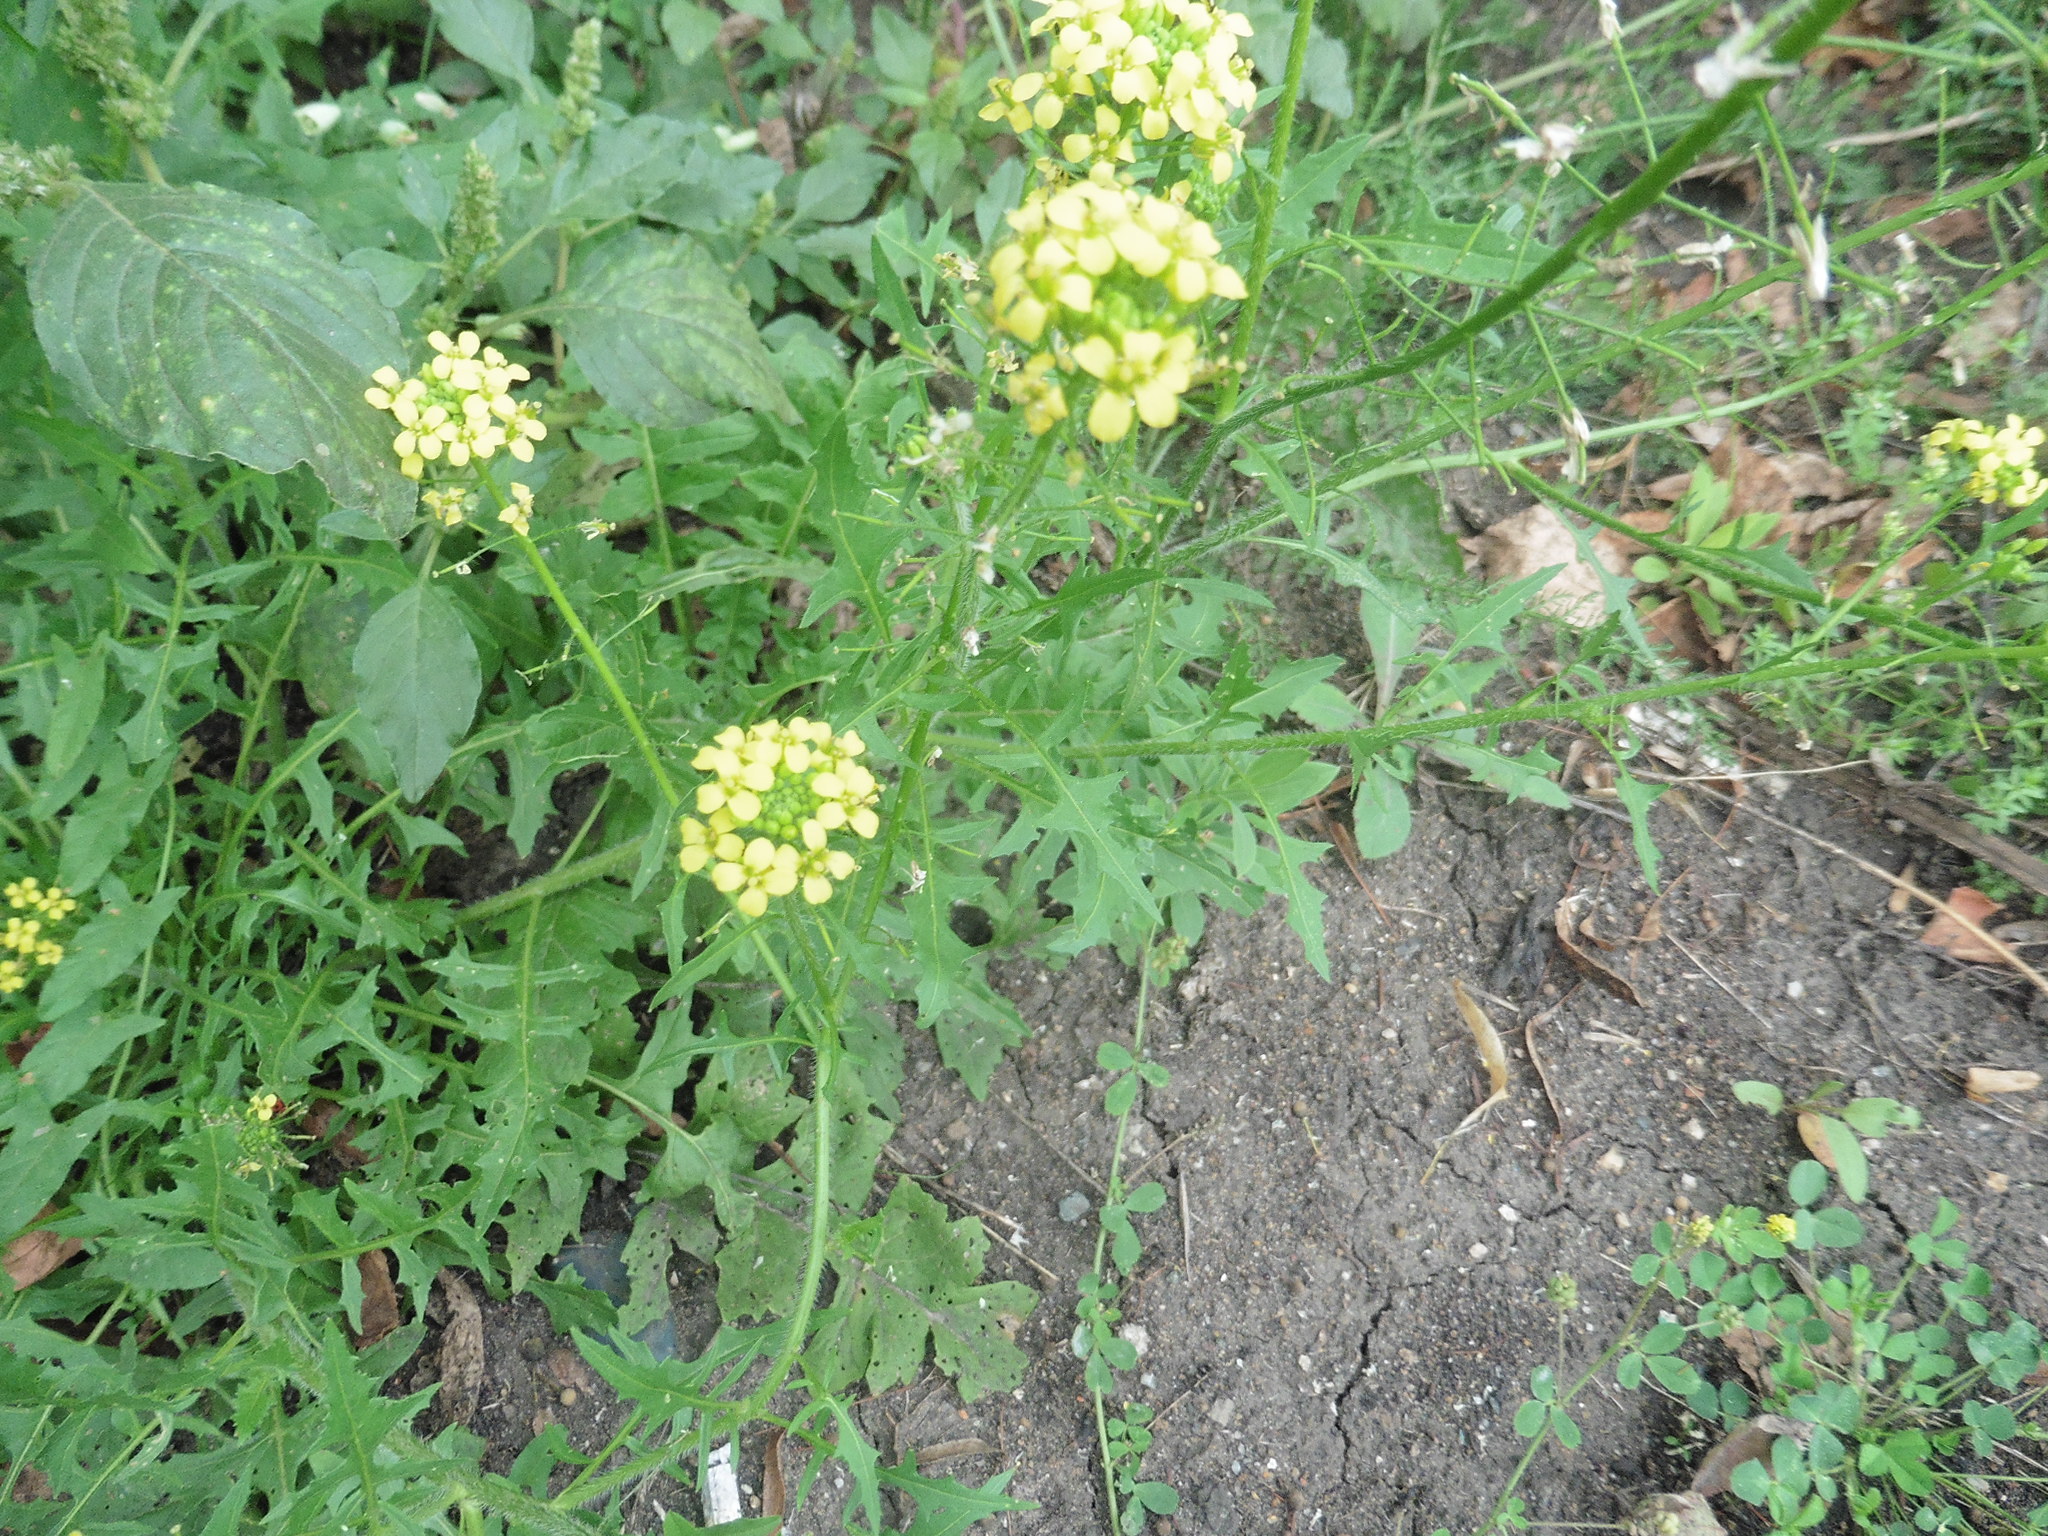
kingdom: Plantae
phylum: Tracheophyta
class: Magnoliopsida
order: Brassicales
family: Brassicaceae
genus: Sisymbrium
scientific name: Sisymbrium loeselii
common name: False london-rocket
